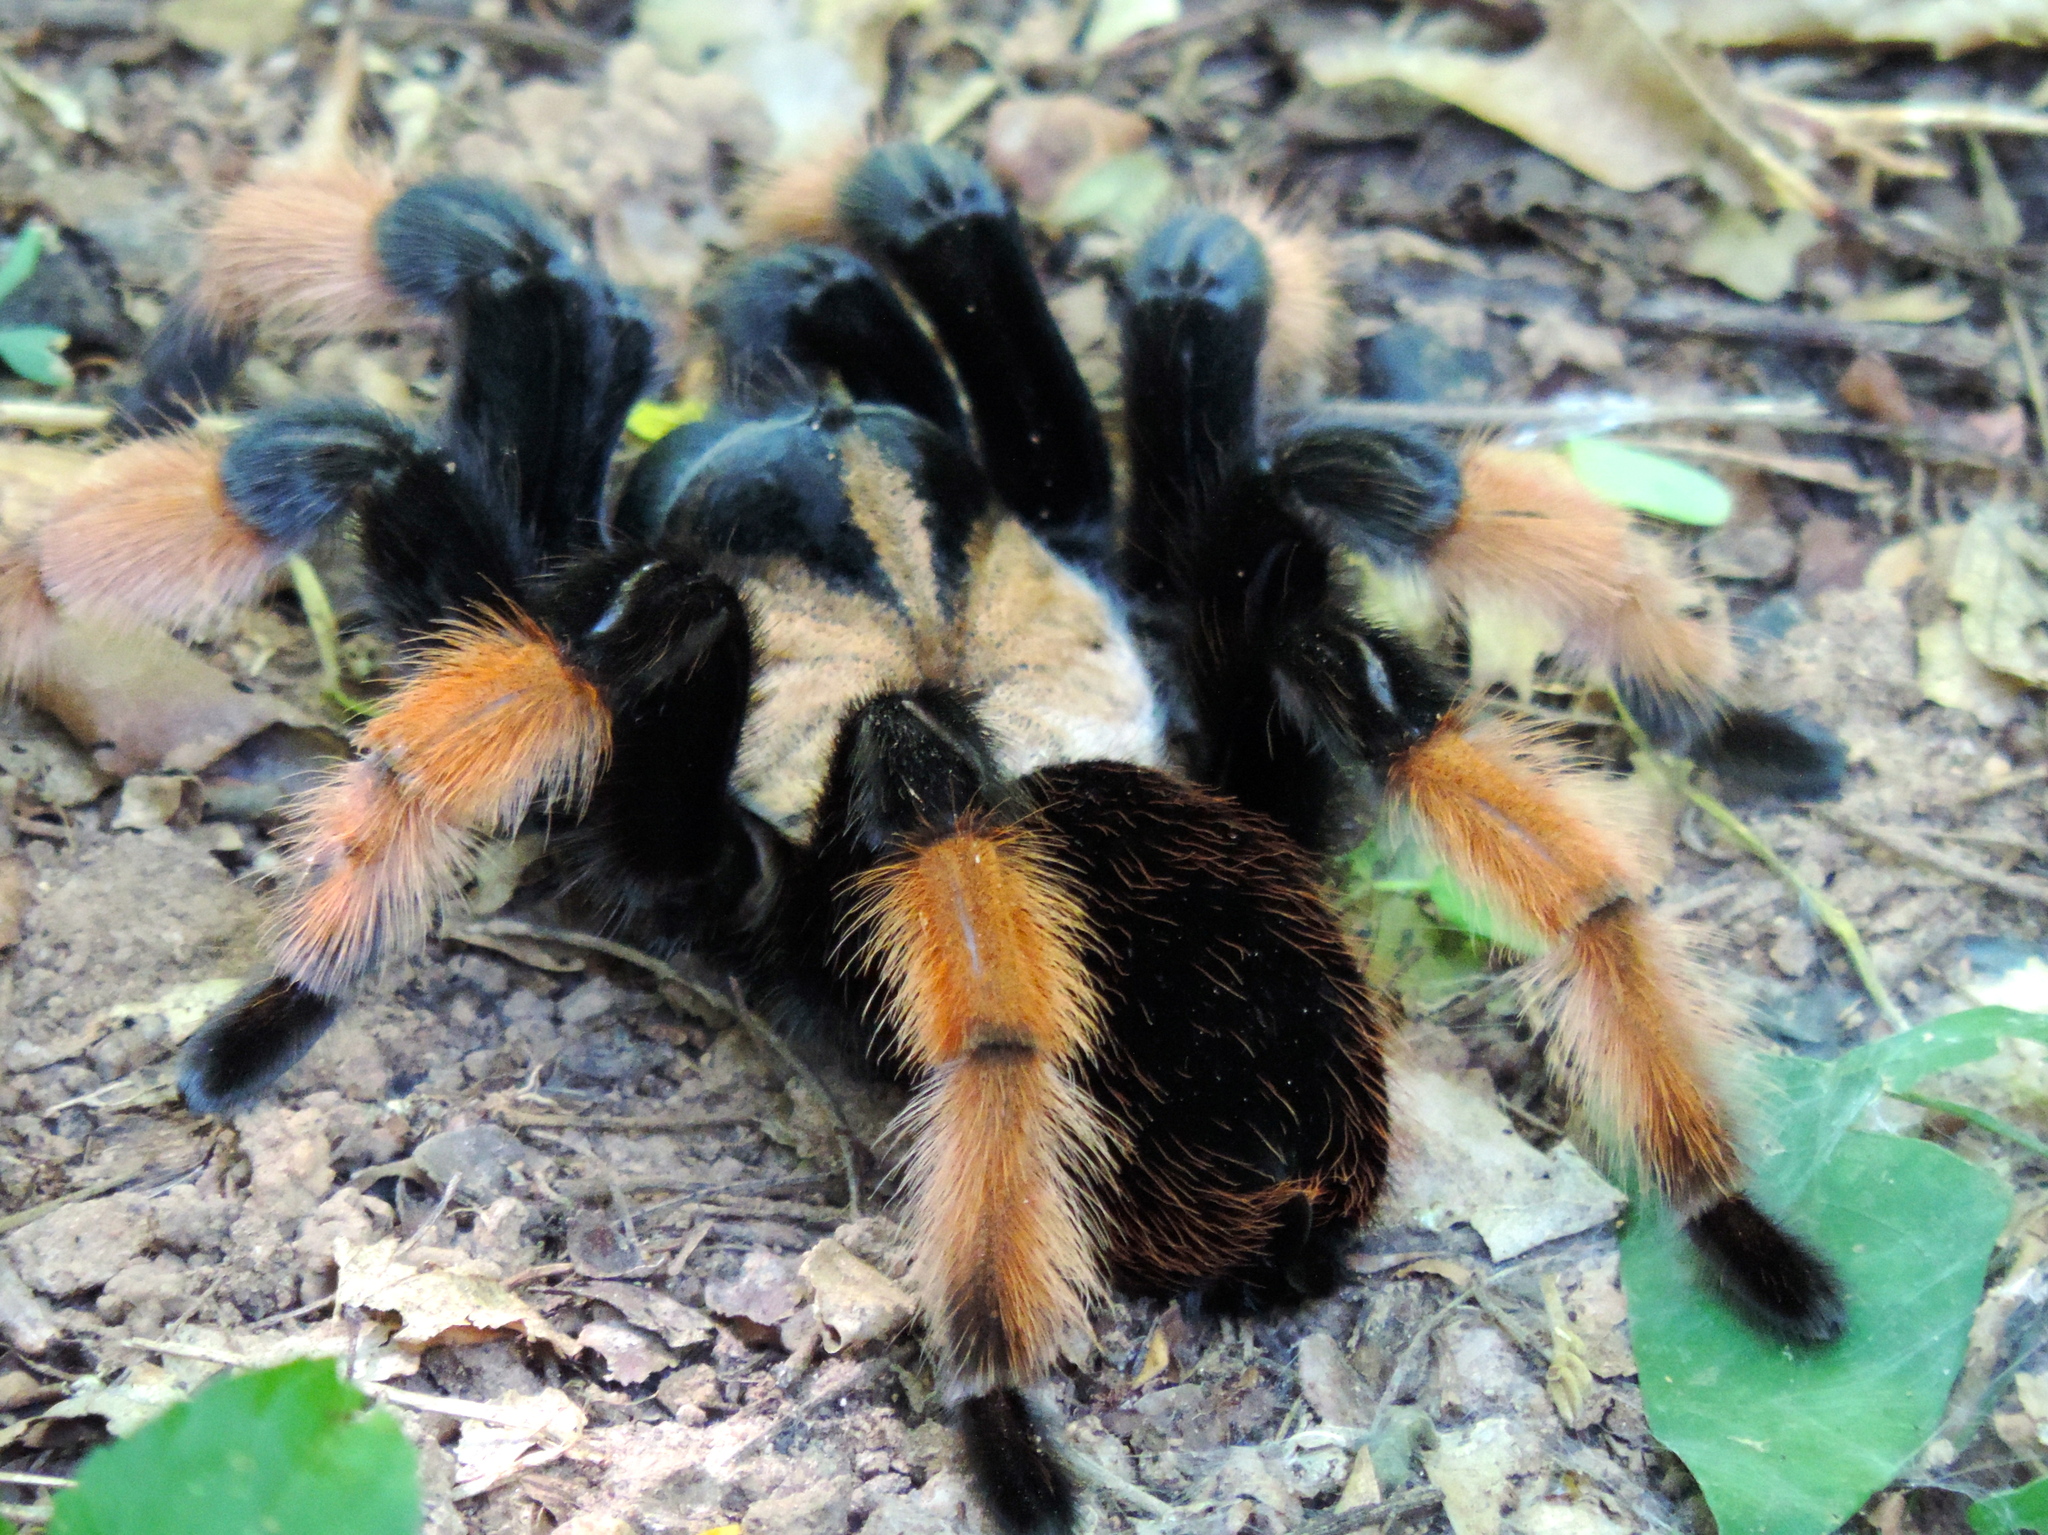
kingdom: Animalia
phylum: Arthropoda
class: Arachnida
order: Araneae
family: Theraphosidae
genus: Brachypelma
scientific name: Brachypelma emilia
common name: Mexican redleg
